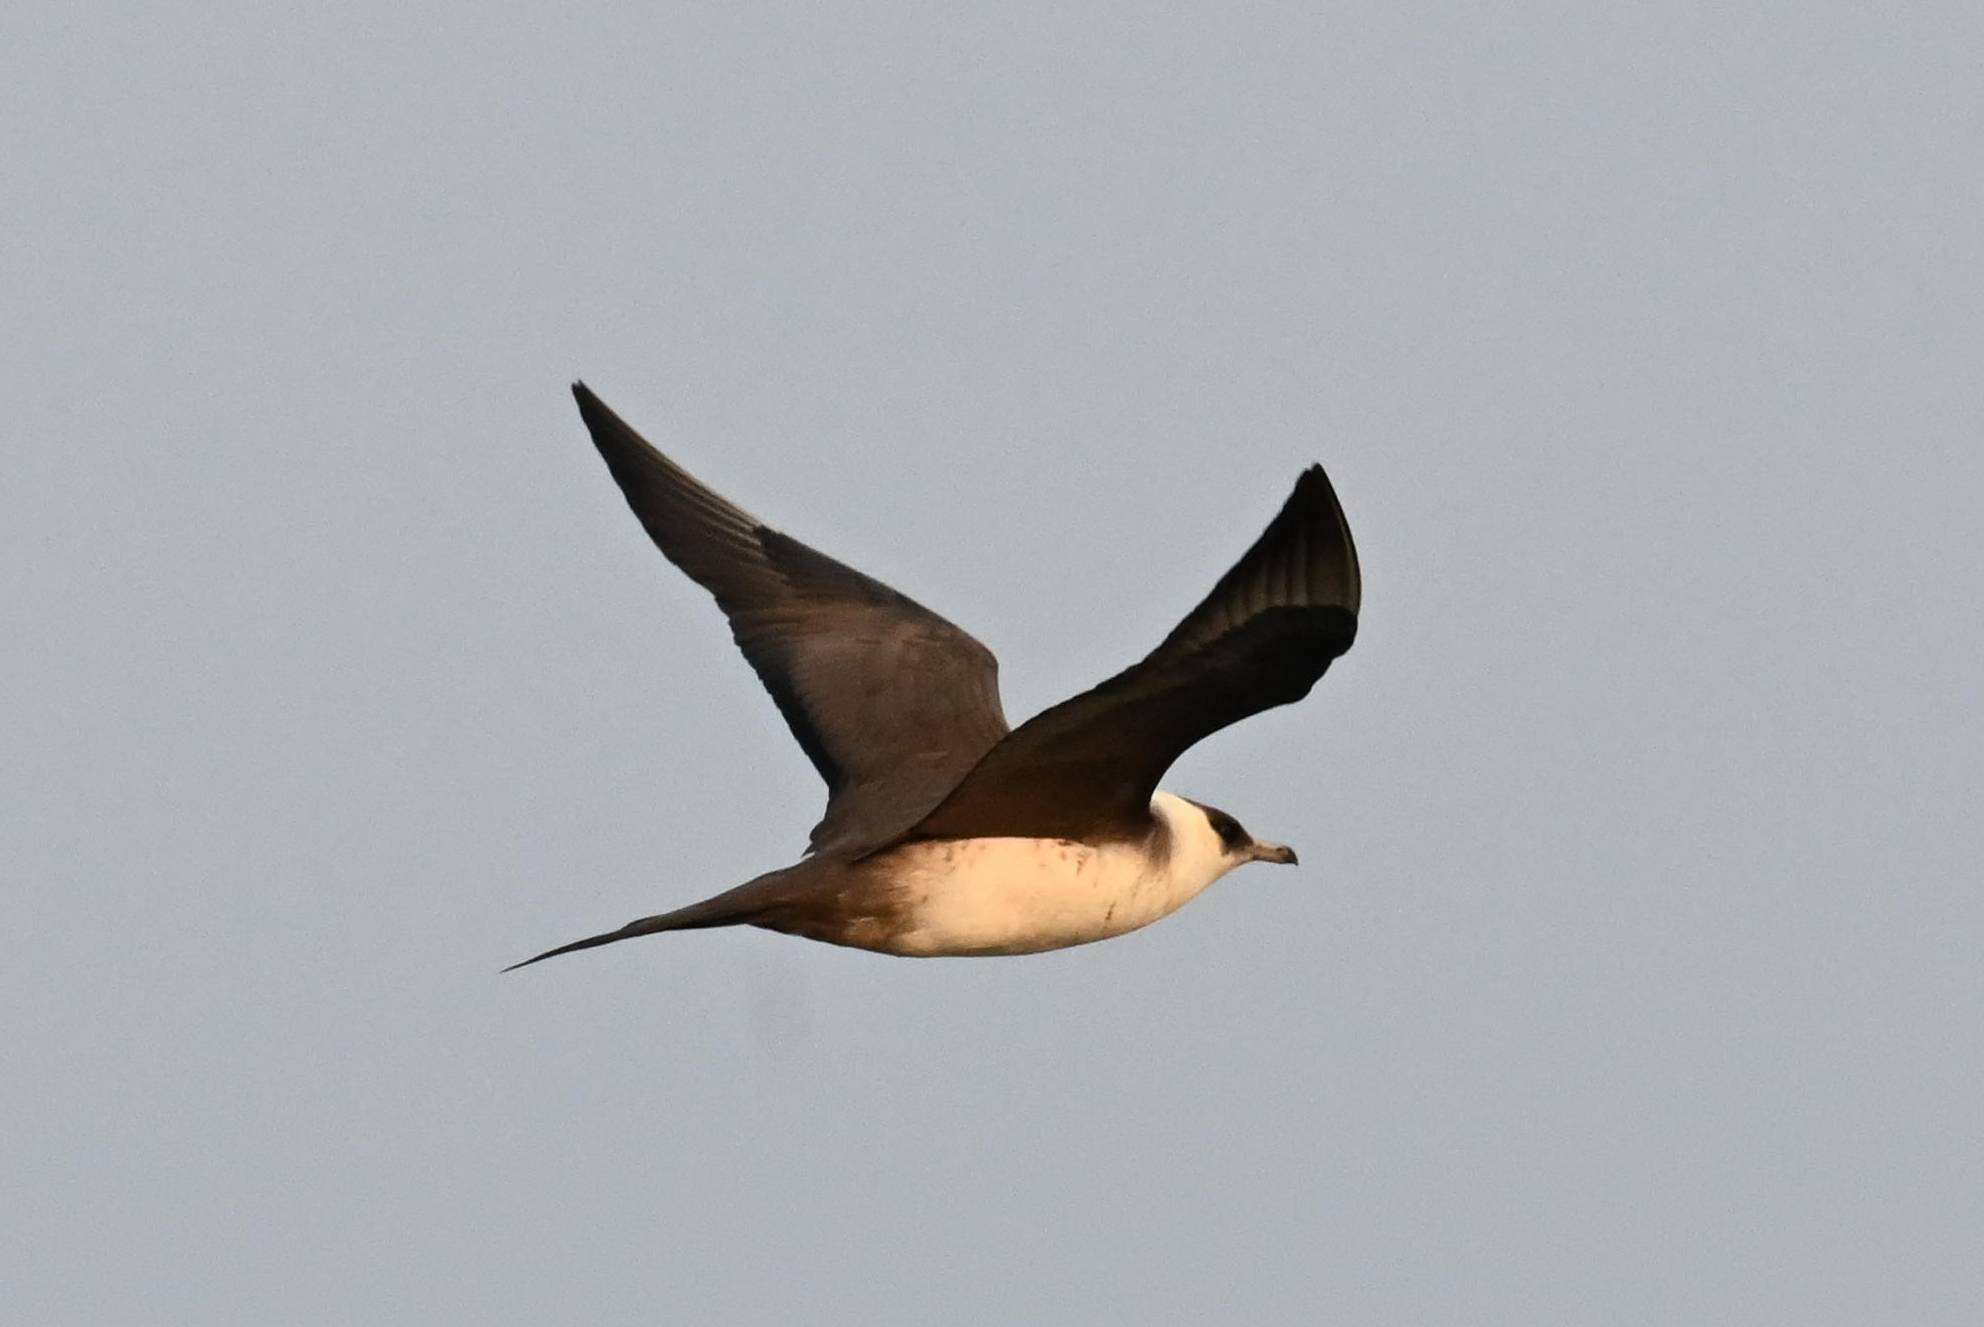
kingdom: Animalia
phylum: Chordata
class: Aves
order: Charadriiformes
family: Stercorariidae
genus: Stercorarius
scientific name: Stercorarius parasiticus
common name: Parasitic jaeger
